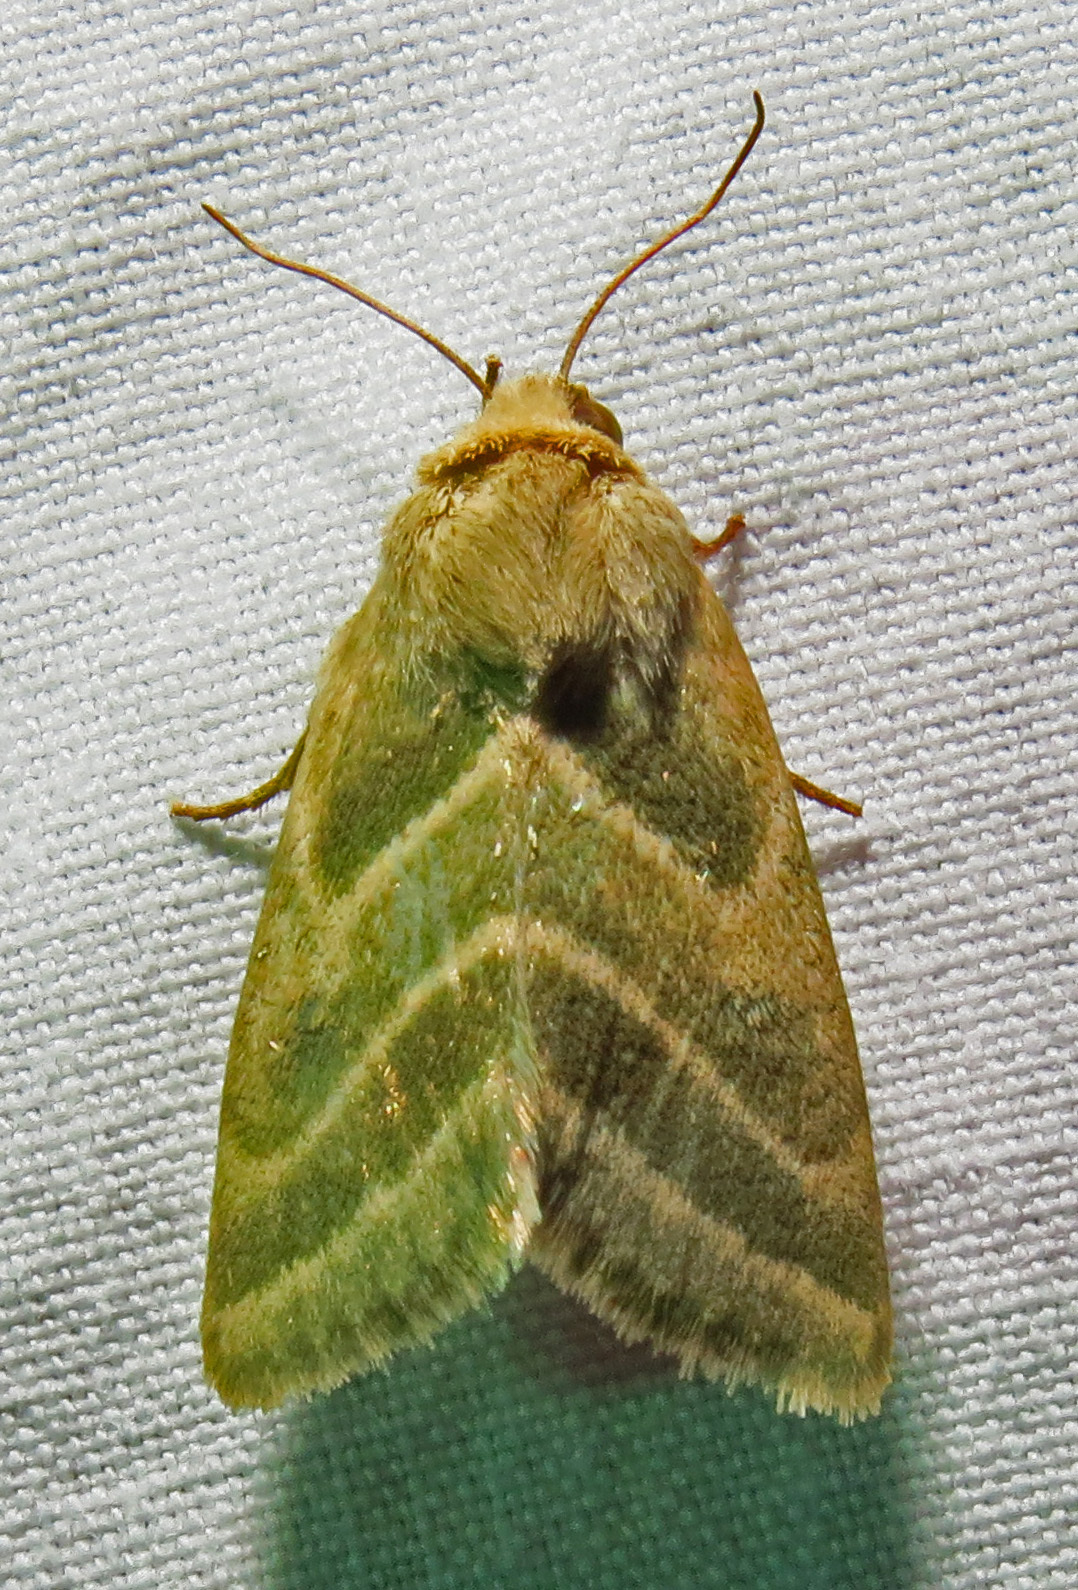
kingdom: Animalia
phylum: Arthropoda
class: Insecta
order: Lepidoptera
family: Noctuidae
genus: Schinia
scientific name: Schinia trifascia
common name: Three-lined flower moth
